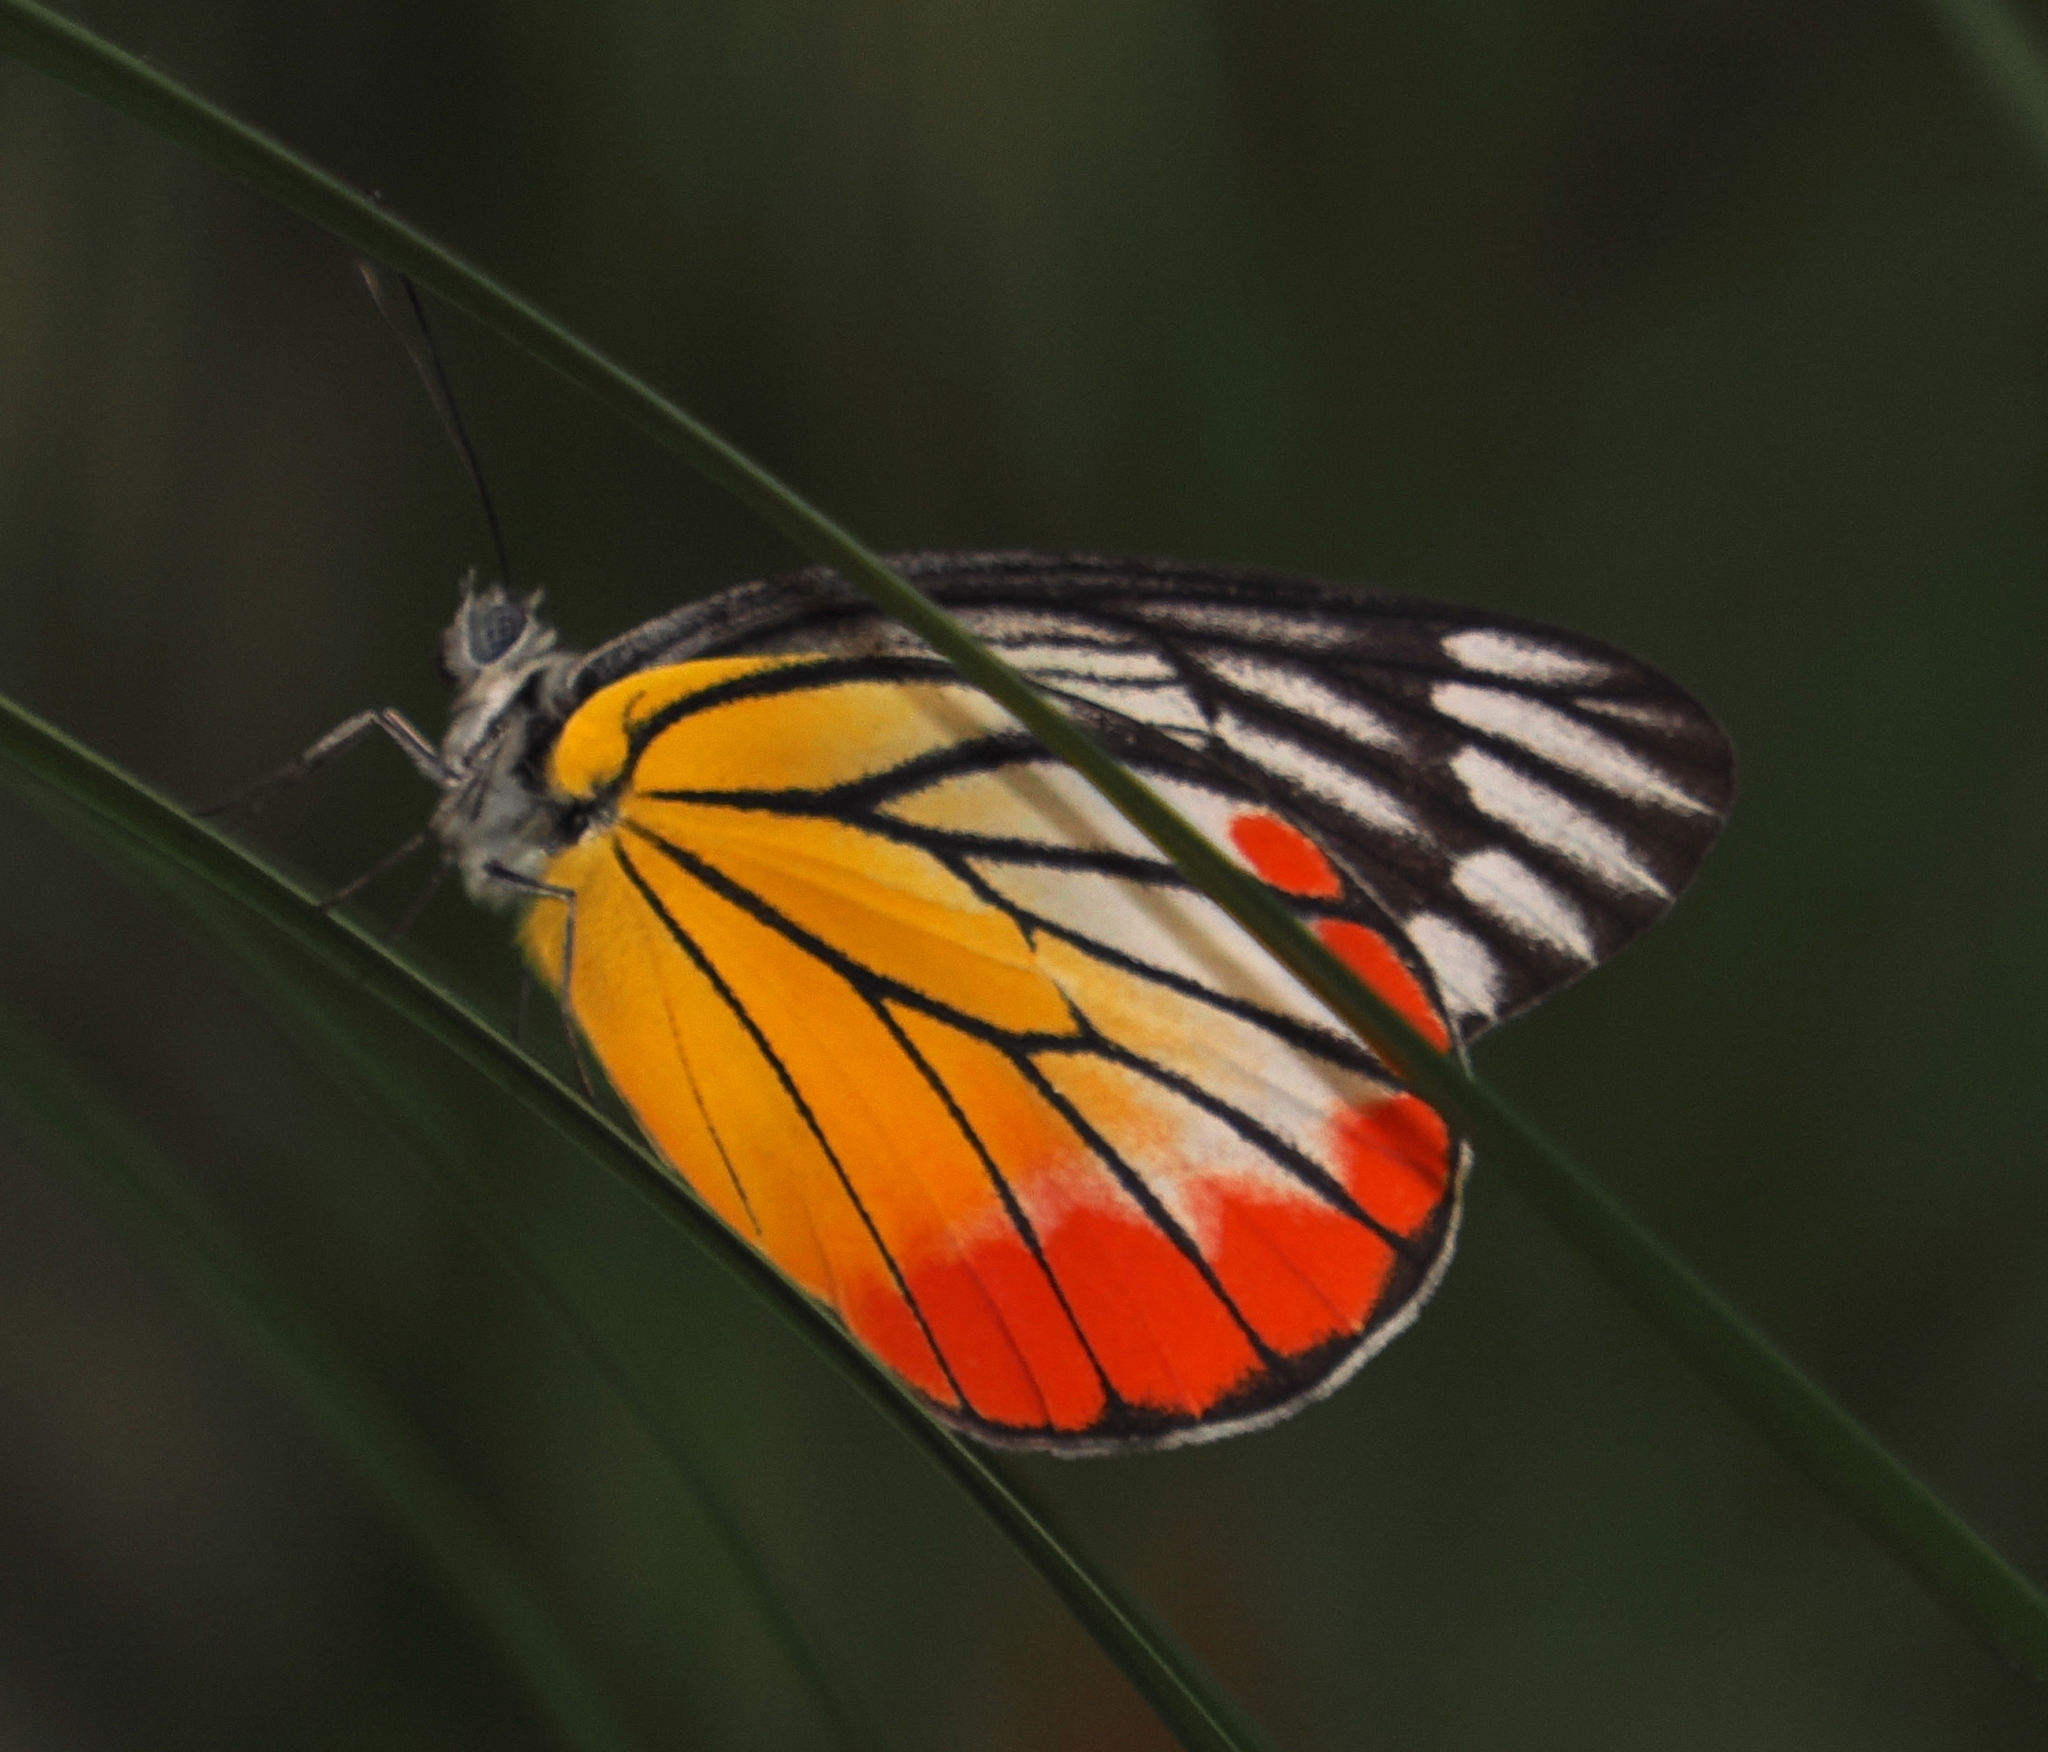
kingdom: Animalia
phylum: Arthropoda
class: Insecta
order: Lepidoptera
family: Pieridae
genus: Delias
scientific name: Delias hyparete
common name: Painted jezebel
